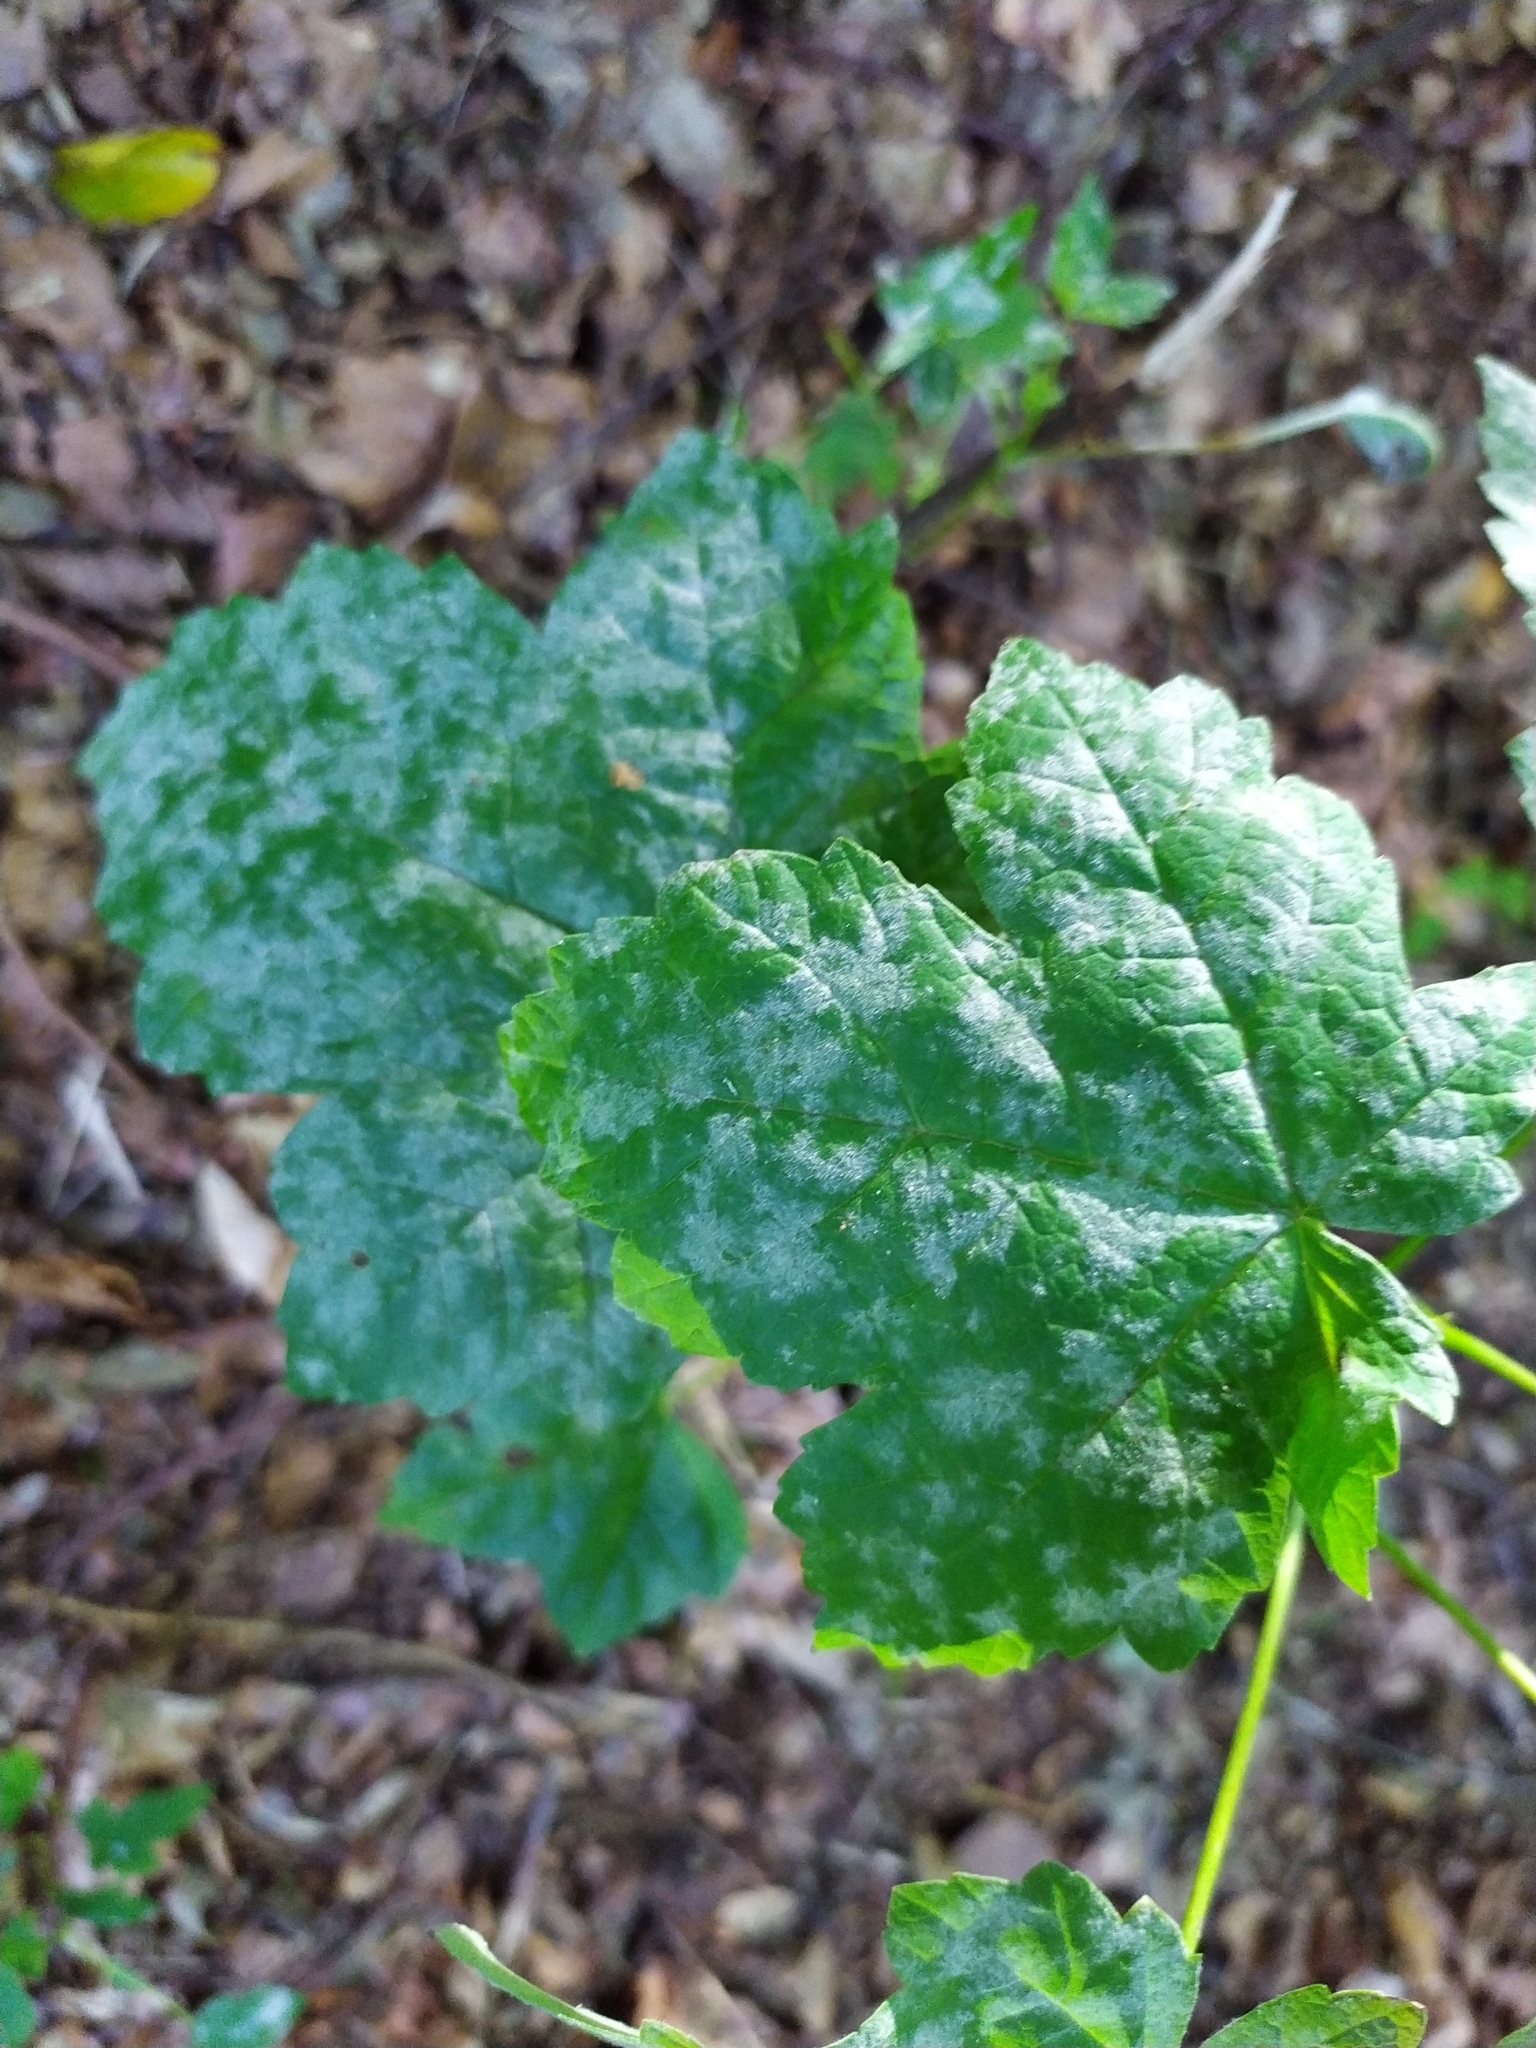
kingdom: Fungi
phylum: Ascomycota
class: Leotiomycetes
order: Helotiales
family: Erysiphaceae
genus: Sawadaea
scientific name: Sawadaea bicornis
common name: Maple mildew
